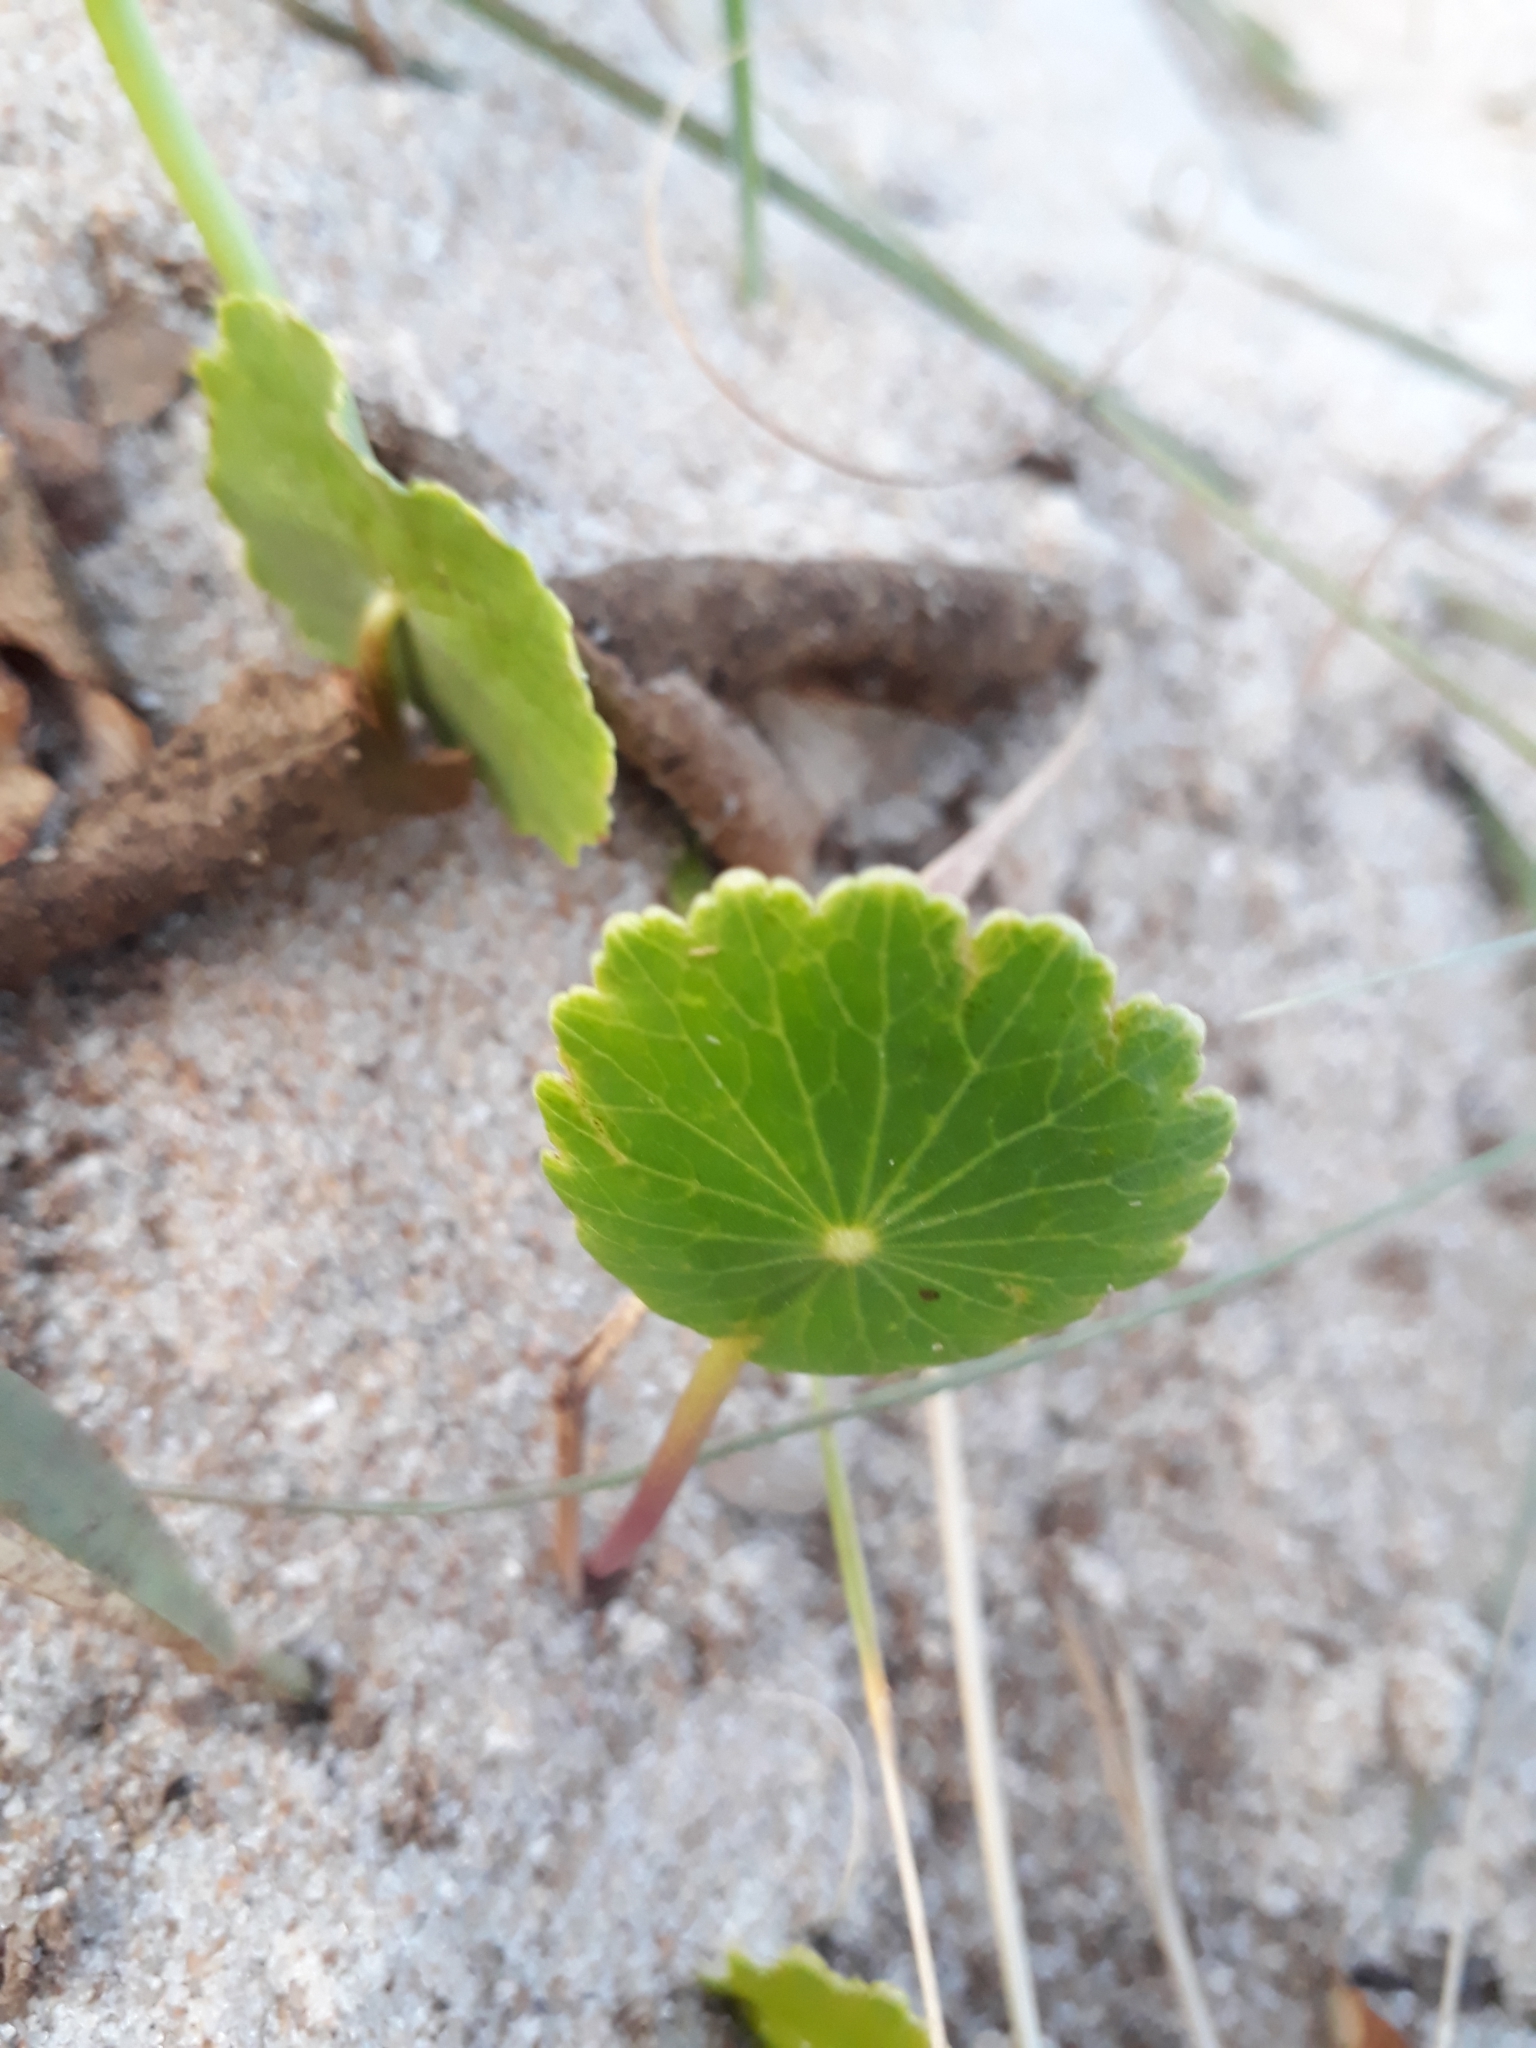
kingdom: Plantae
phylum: Tracheophyta
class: Magnoliopsida
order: Apiales
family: Araliaceae
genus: Hydrocotyle
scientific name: Hydrocotyle bonariensis
